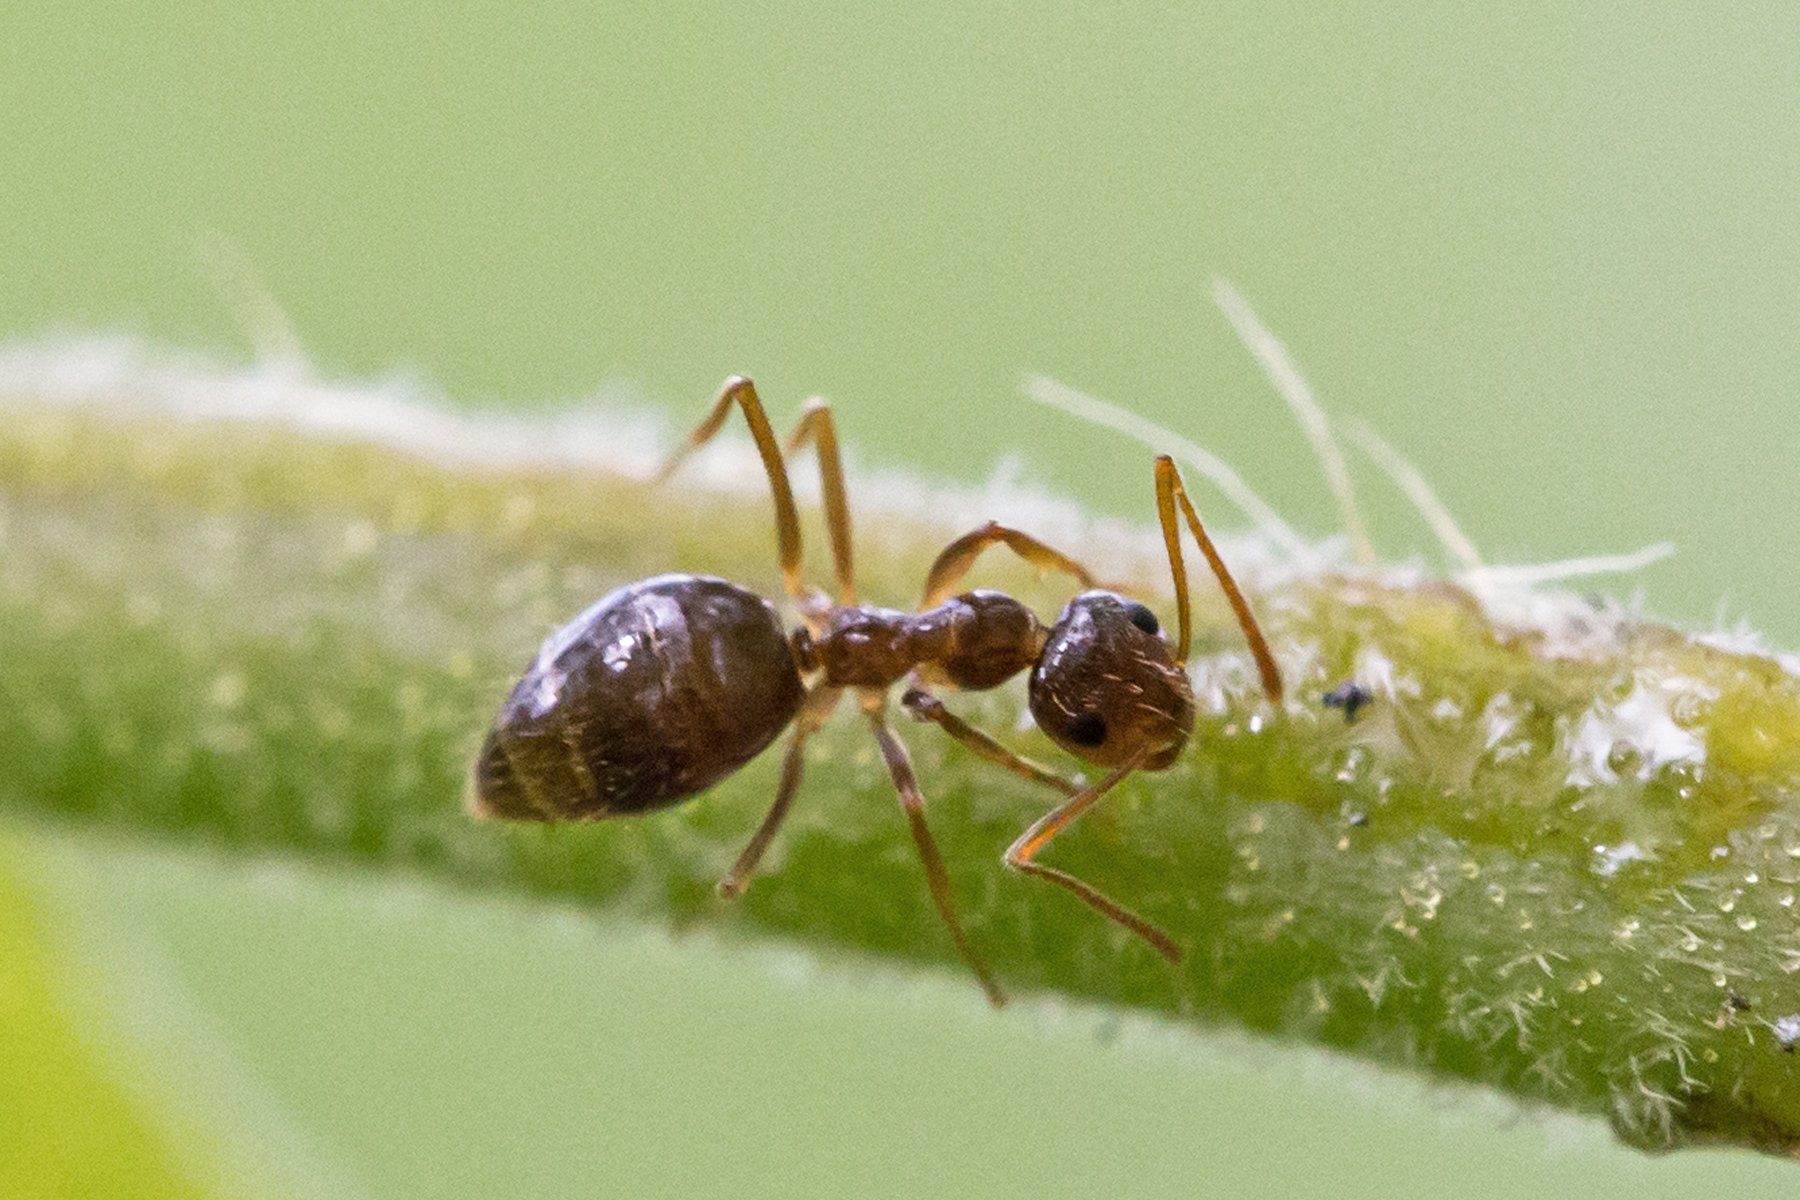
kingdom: Animalia
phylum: Arthropoda
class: Insecta
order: Hymenoptera
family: Formicidae
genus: Prenolepis
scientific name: Prenolepis imparis
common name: Small honey ant
